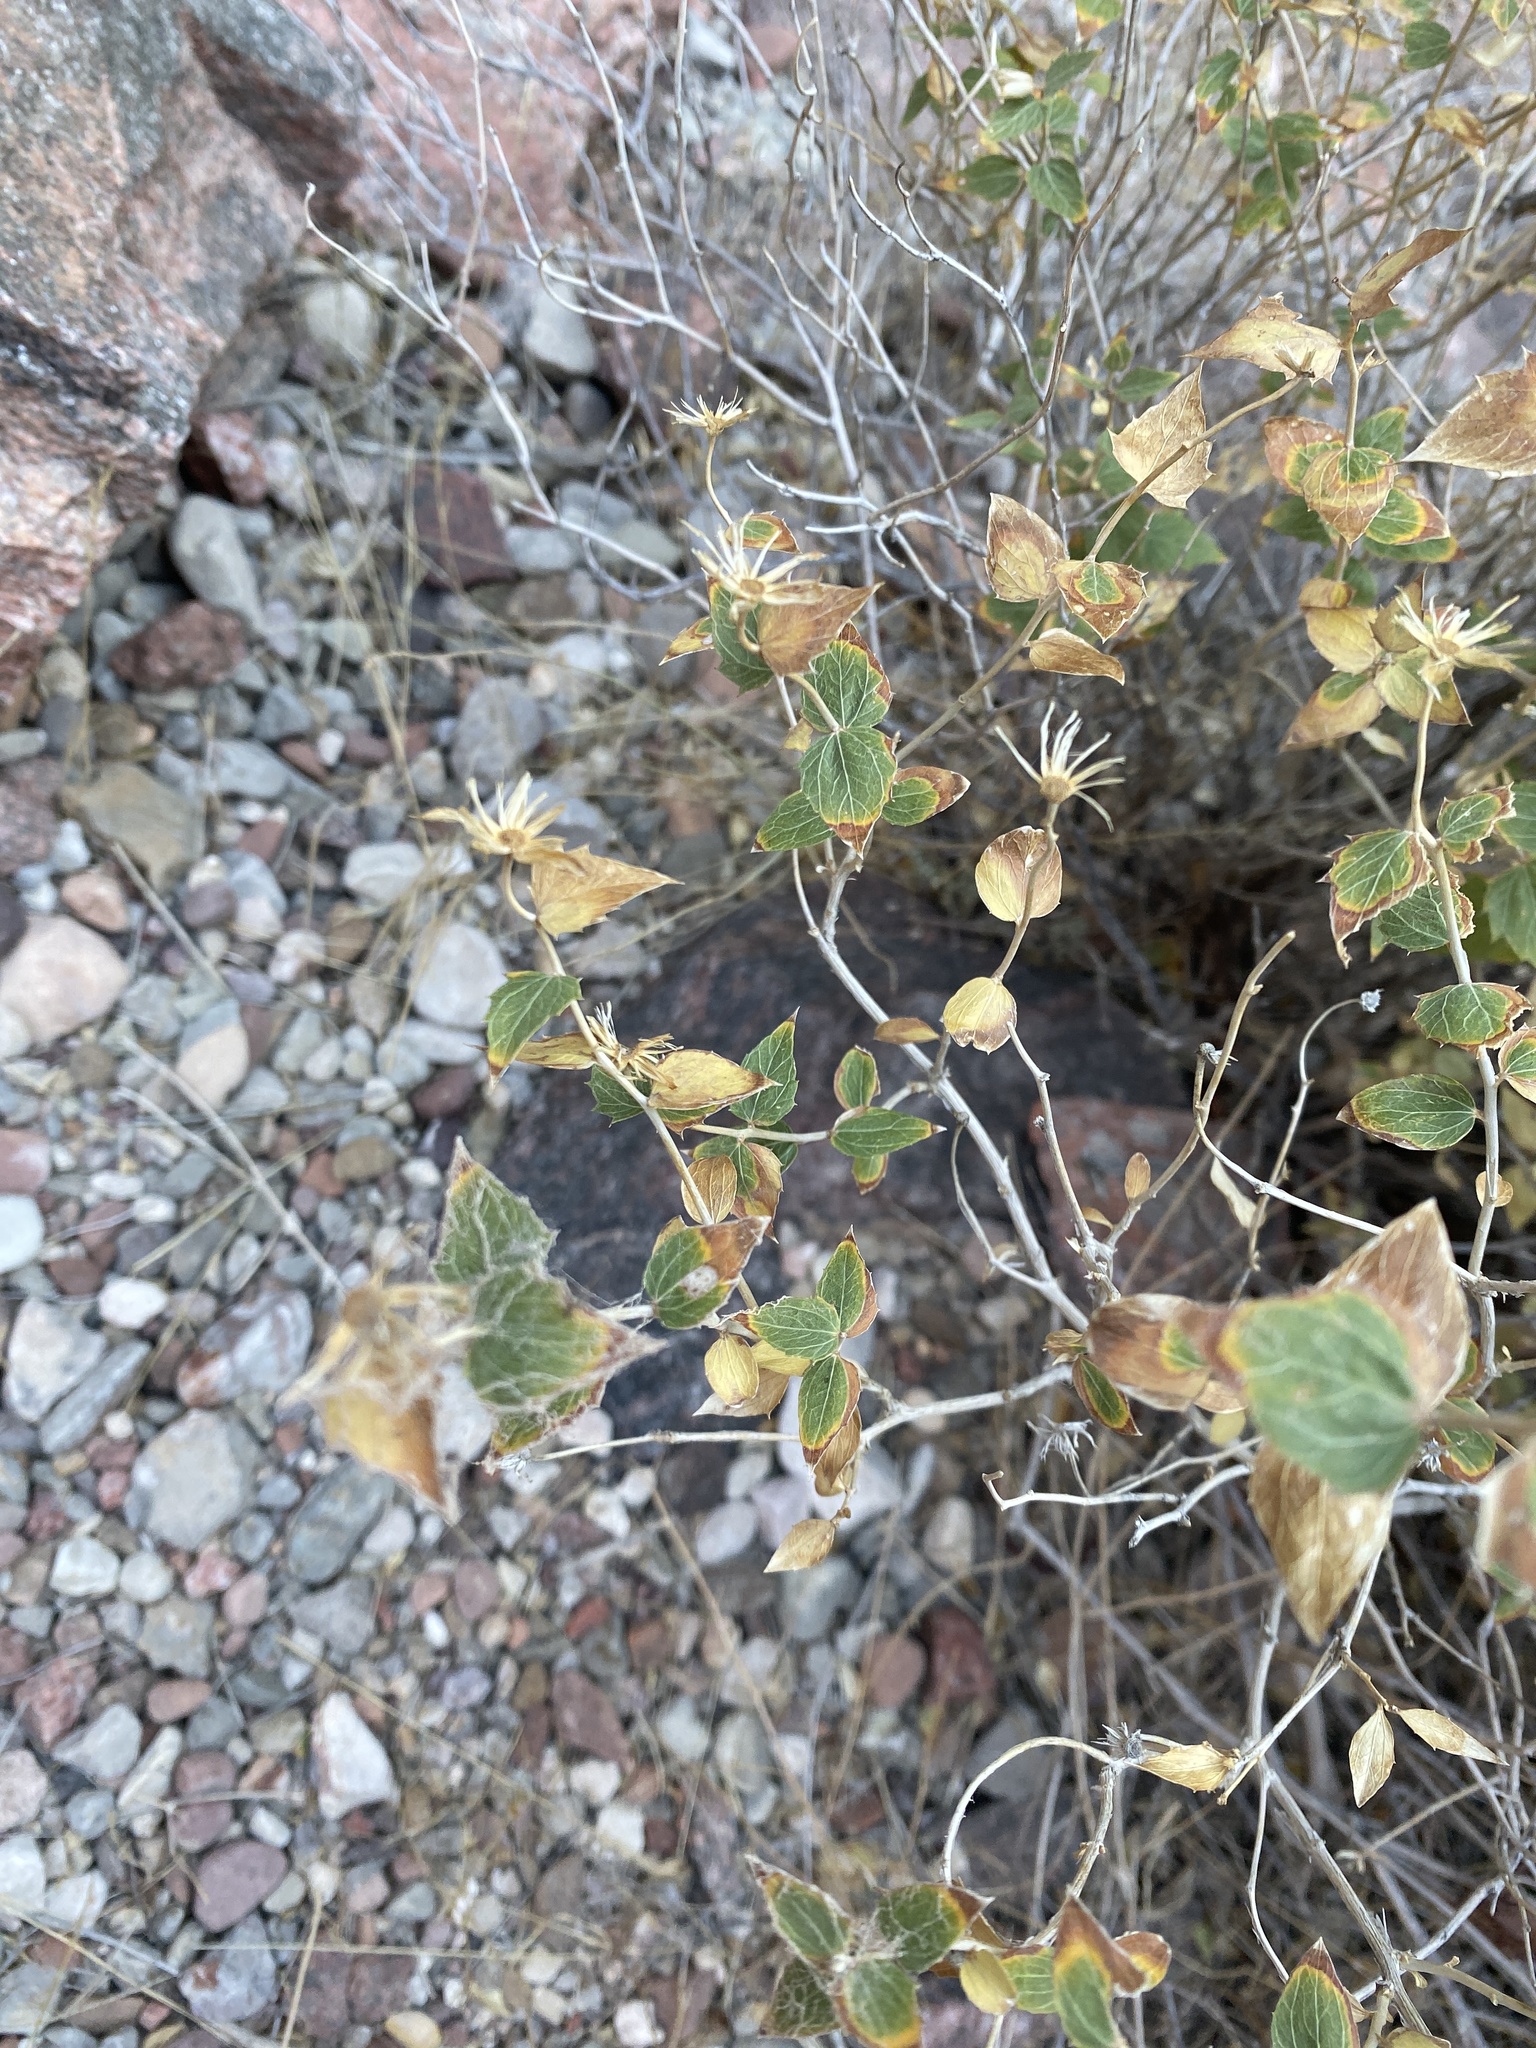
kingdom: Plantae
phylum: Tracheophyta
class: Magnoliopsida
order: Asterales
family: Asteraceae
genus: Brickellia
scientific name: Brickellia atractyloides
